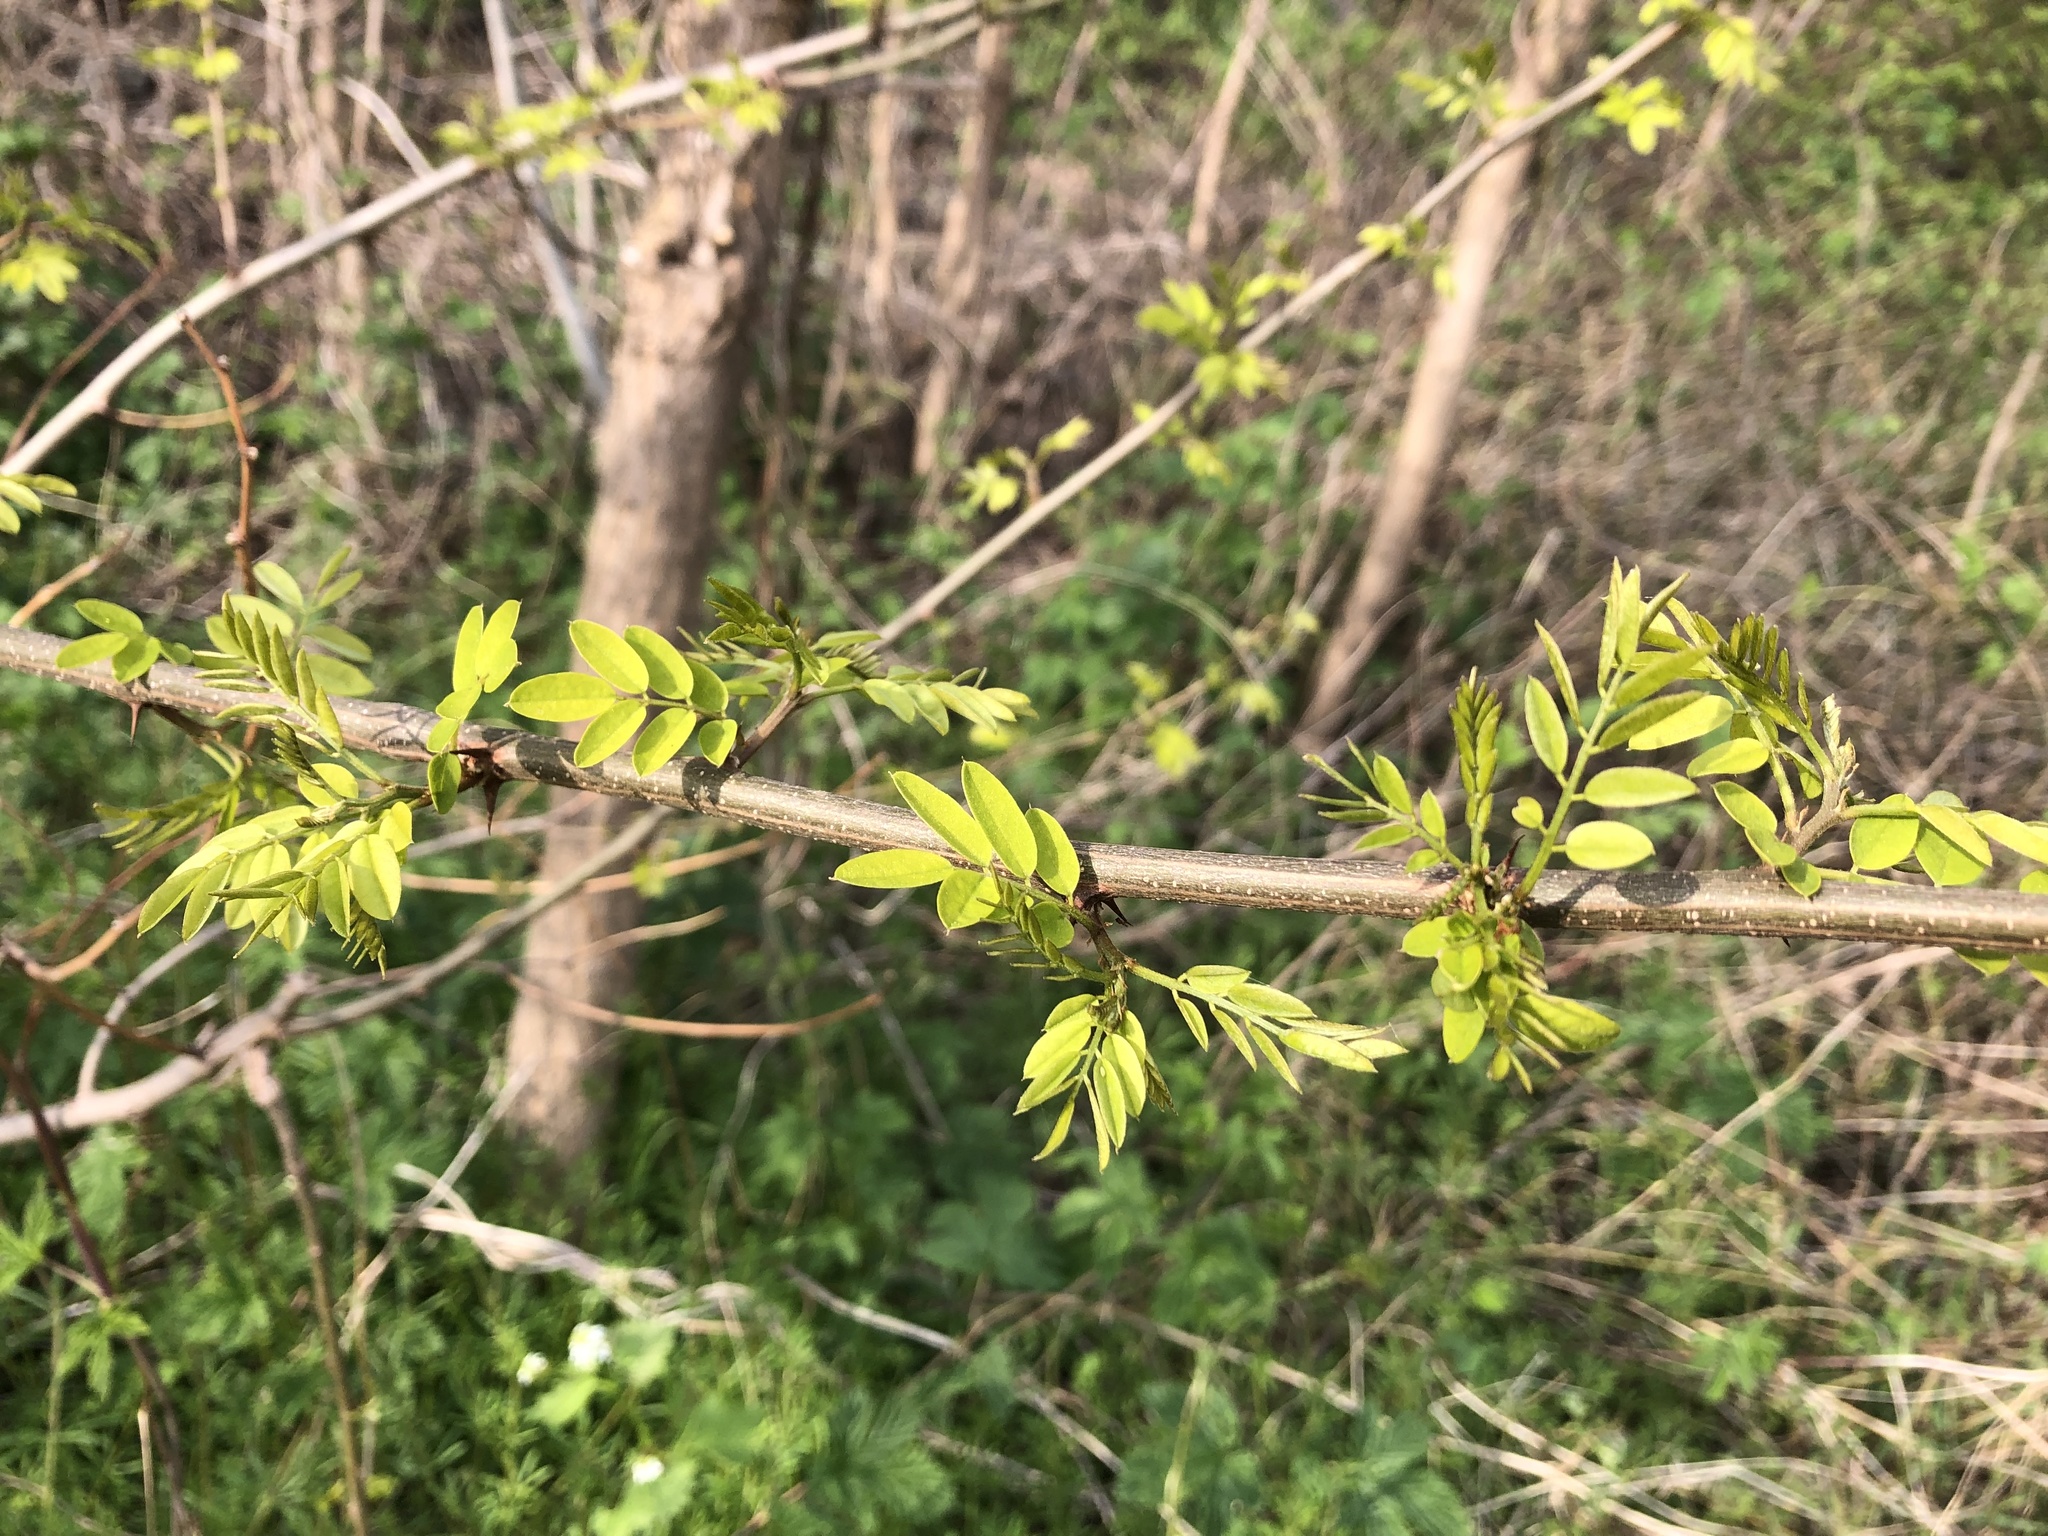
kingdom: Plantae
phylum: Tracheophyta
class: Magnoliopsida
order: Fabales
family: Fabaceae
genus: Robinia
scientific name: Robinia pseudoacacia
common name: Black locust
